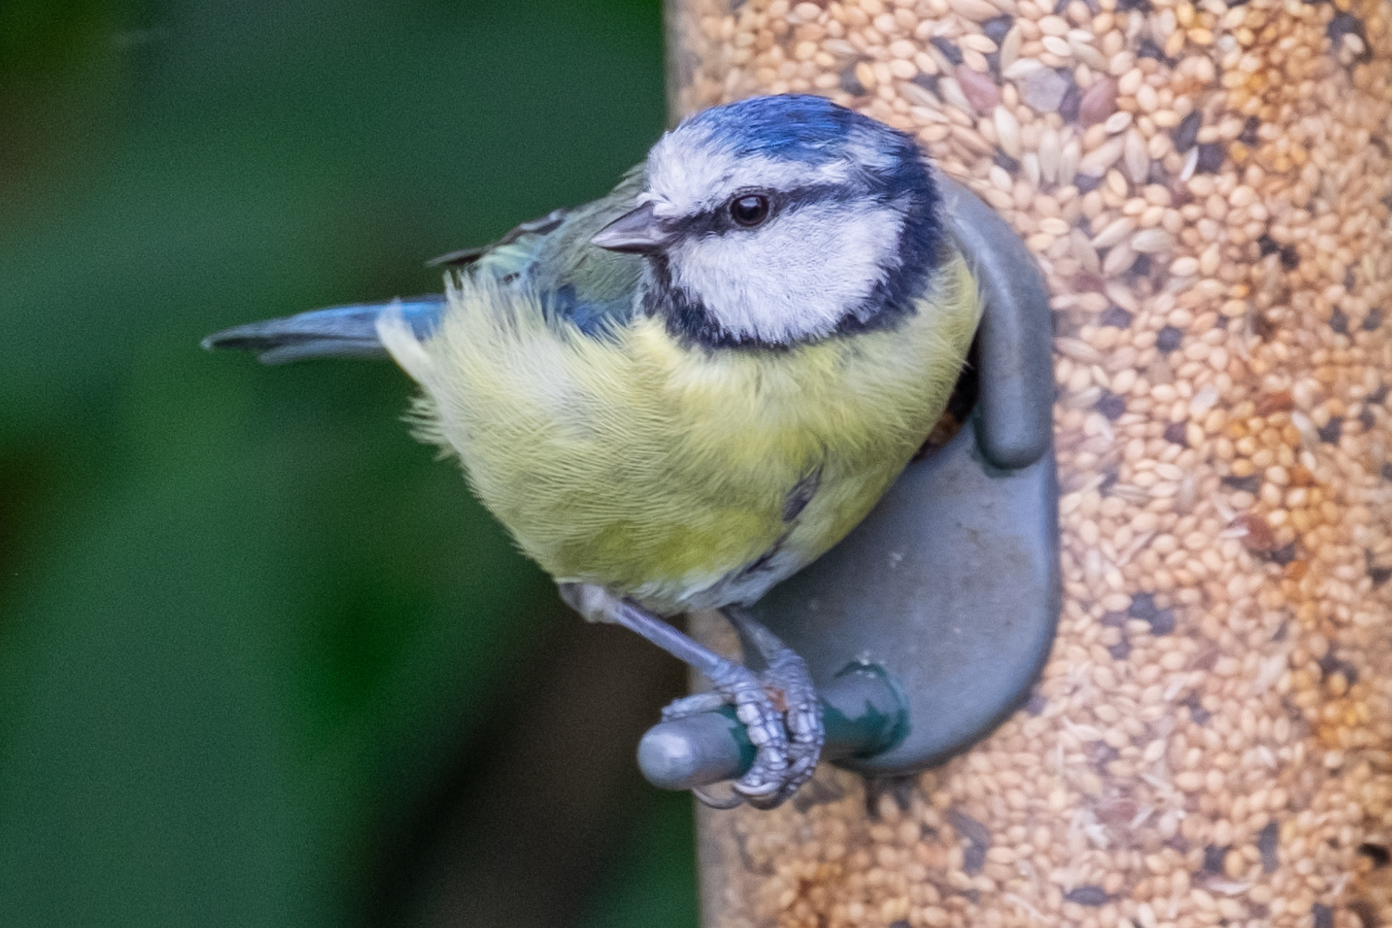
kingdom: Animalia
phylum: Chordata
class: Aves
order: Passeriformes
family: Paridae
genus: Cyanistes
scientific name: Cyanistes caeruleus
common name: Eurasian blue tit
